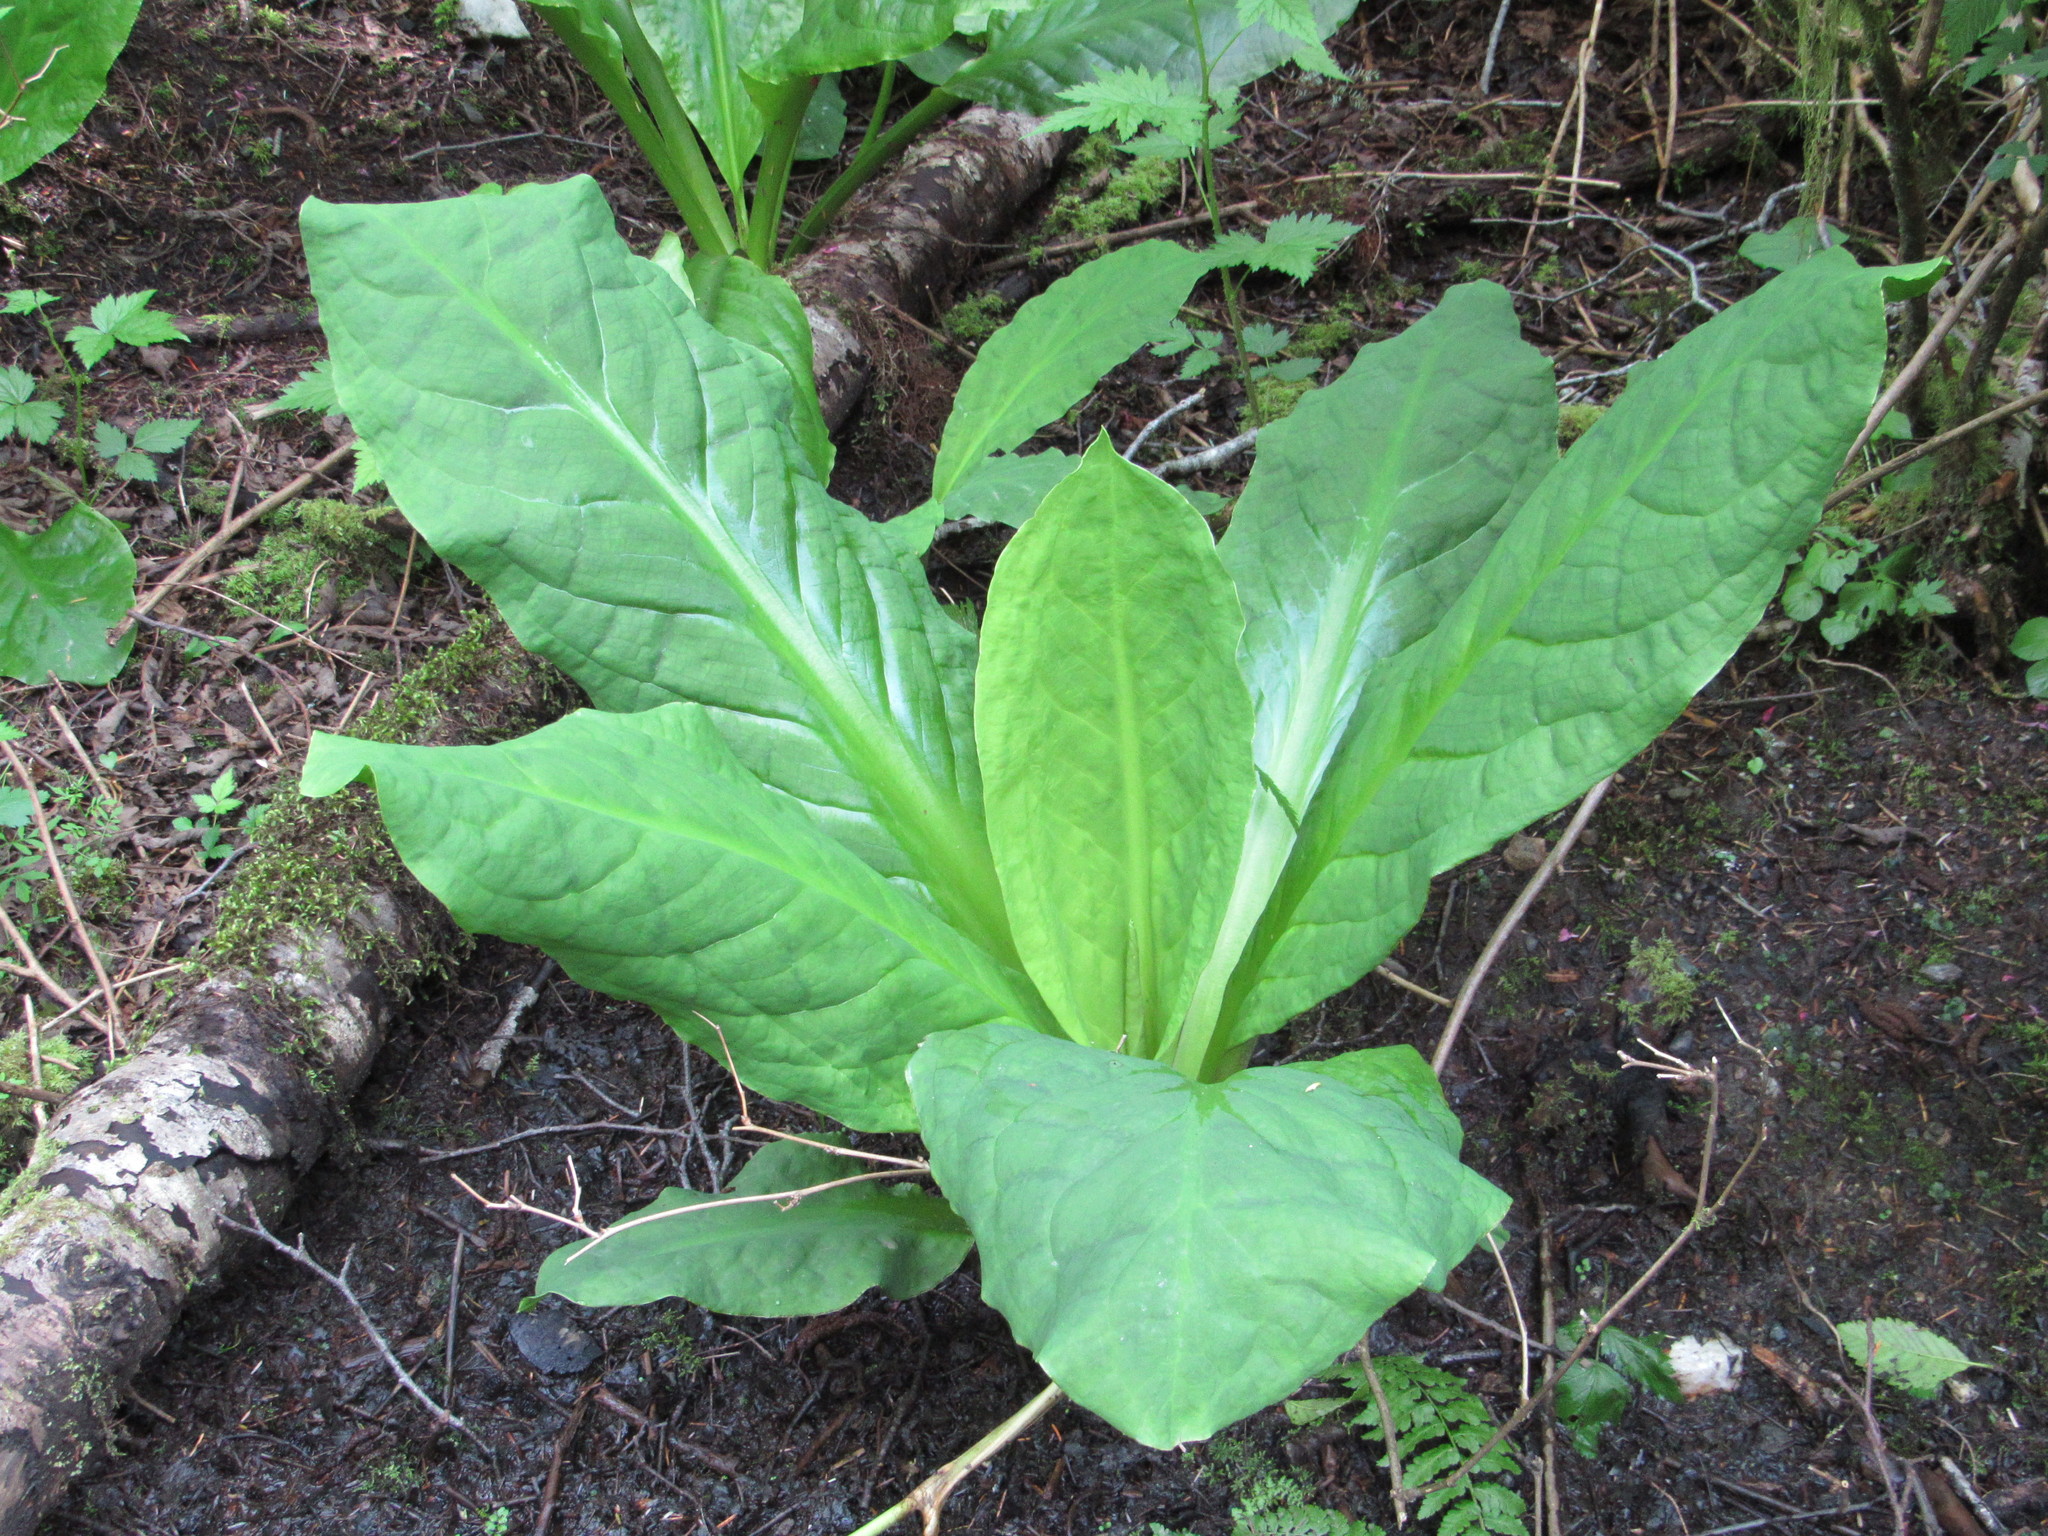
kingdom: Plantae
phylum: Tracheophyta
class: Liliopsida
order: Alismatales
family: Araceae
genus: Lysichiton
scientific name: Lysichiton americanus
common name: American skunk cabbage
